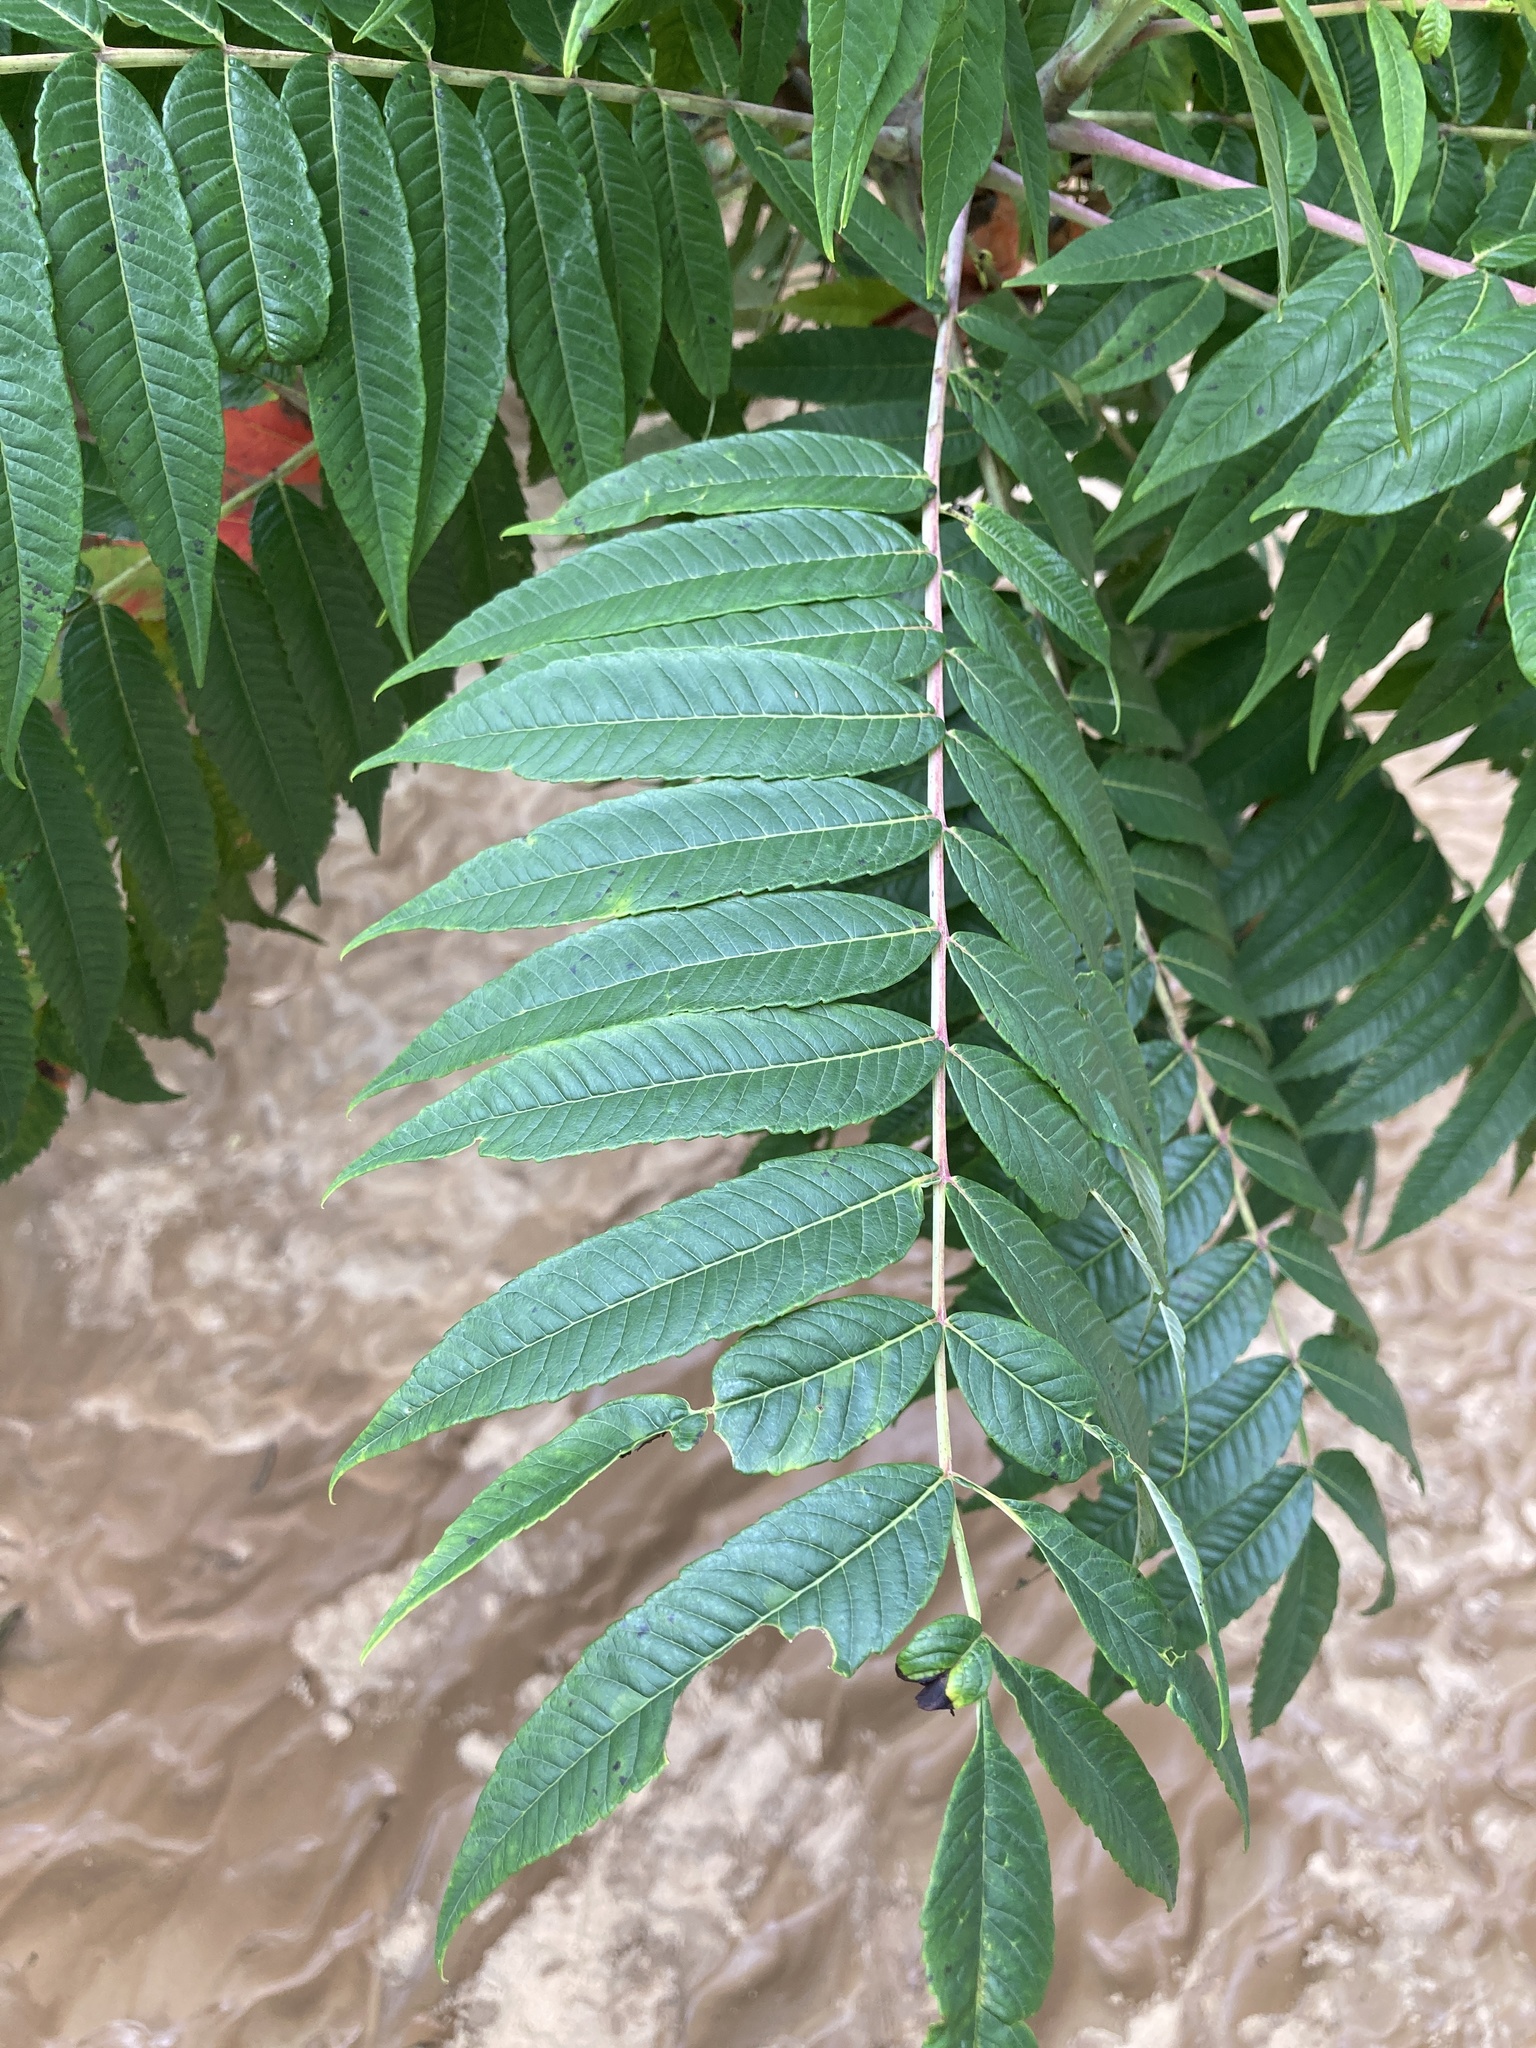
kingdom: Plantae
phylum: Tracheophyta
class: Magnoliopsida
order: Sapindales
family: Anacardiaceae
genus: Rhus
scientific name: Rhus glabra
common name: Scarlet sumac
